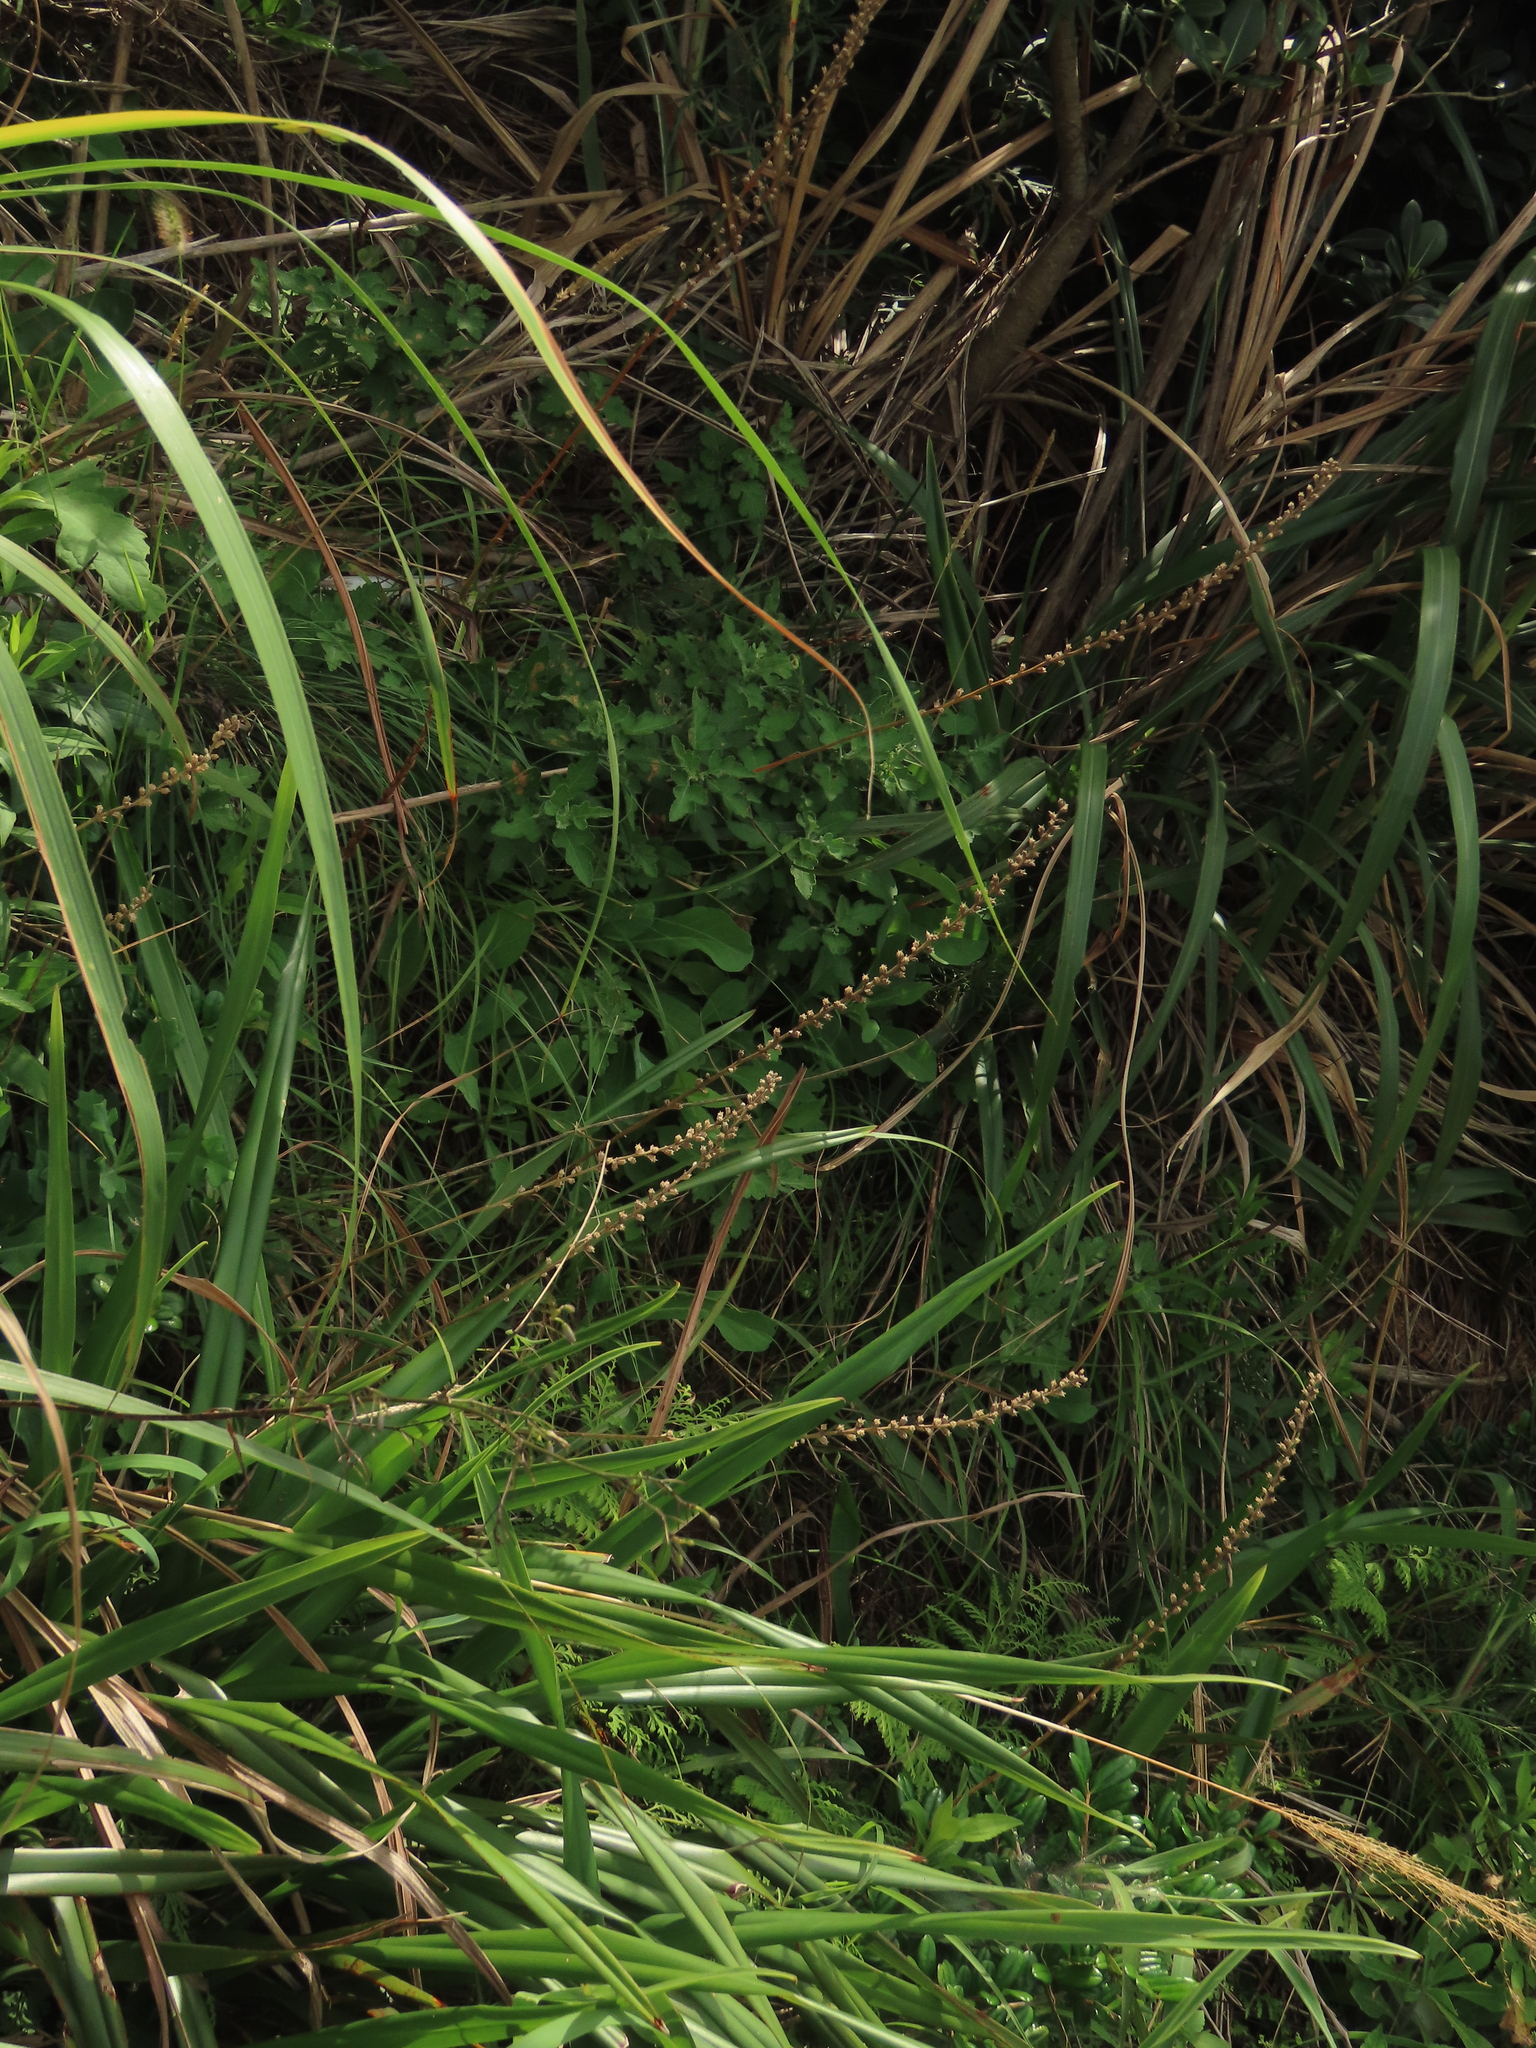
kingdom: Plantae
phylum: Tracheophyta
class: Liliopsida
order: Dioscoreales
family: Nartheciaceae
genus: Aletris
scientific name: Aletris spicata
